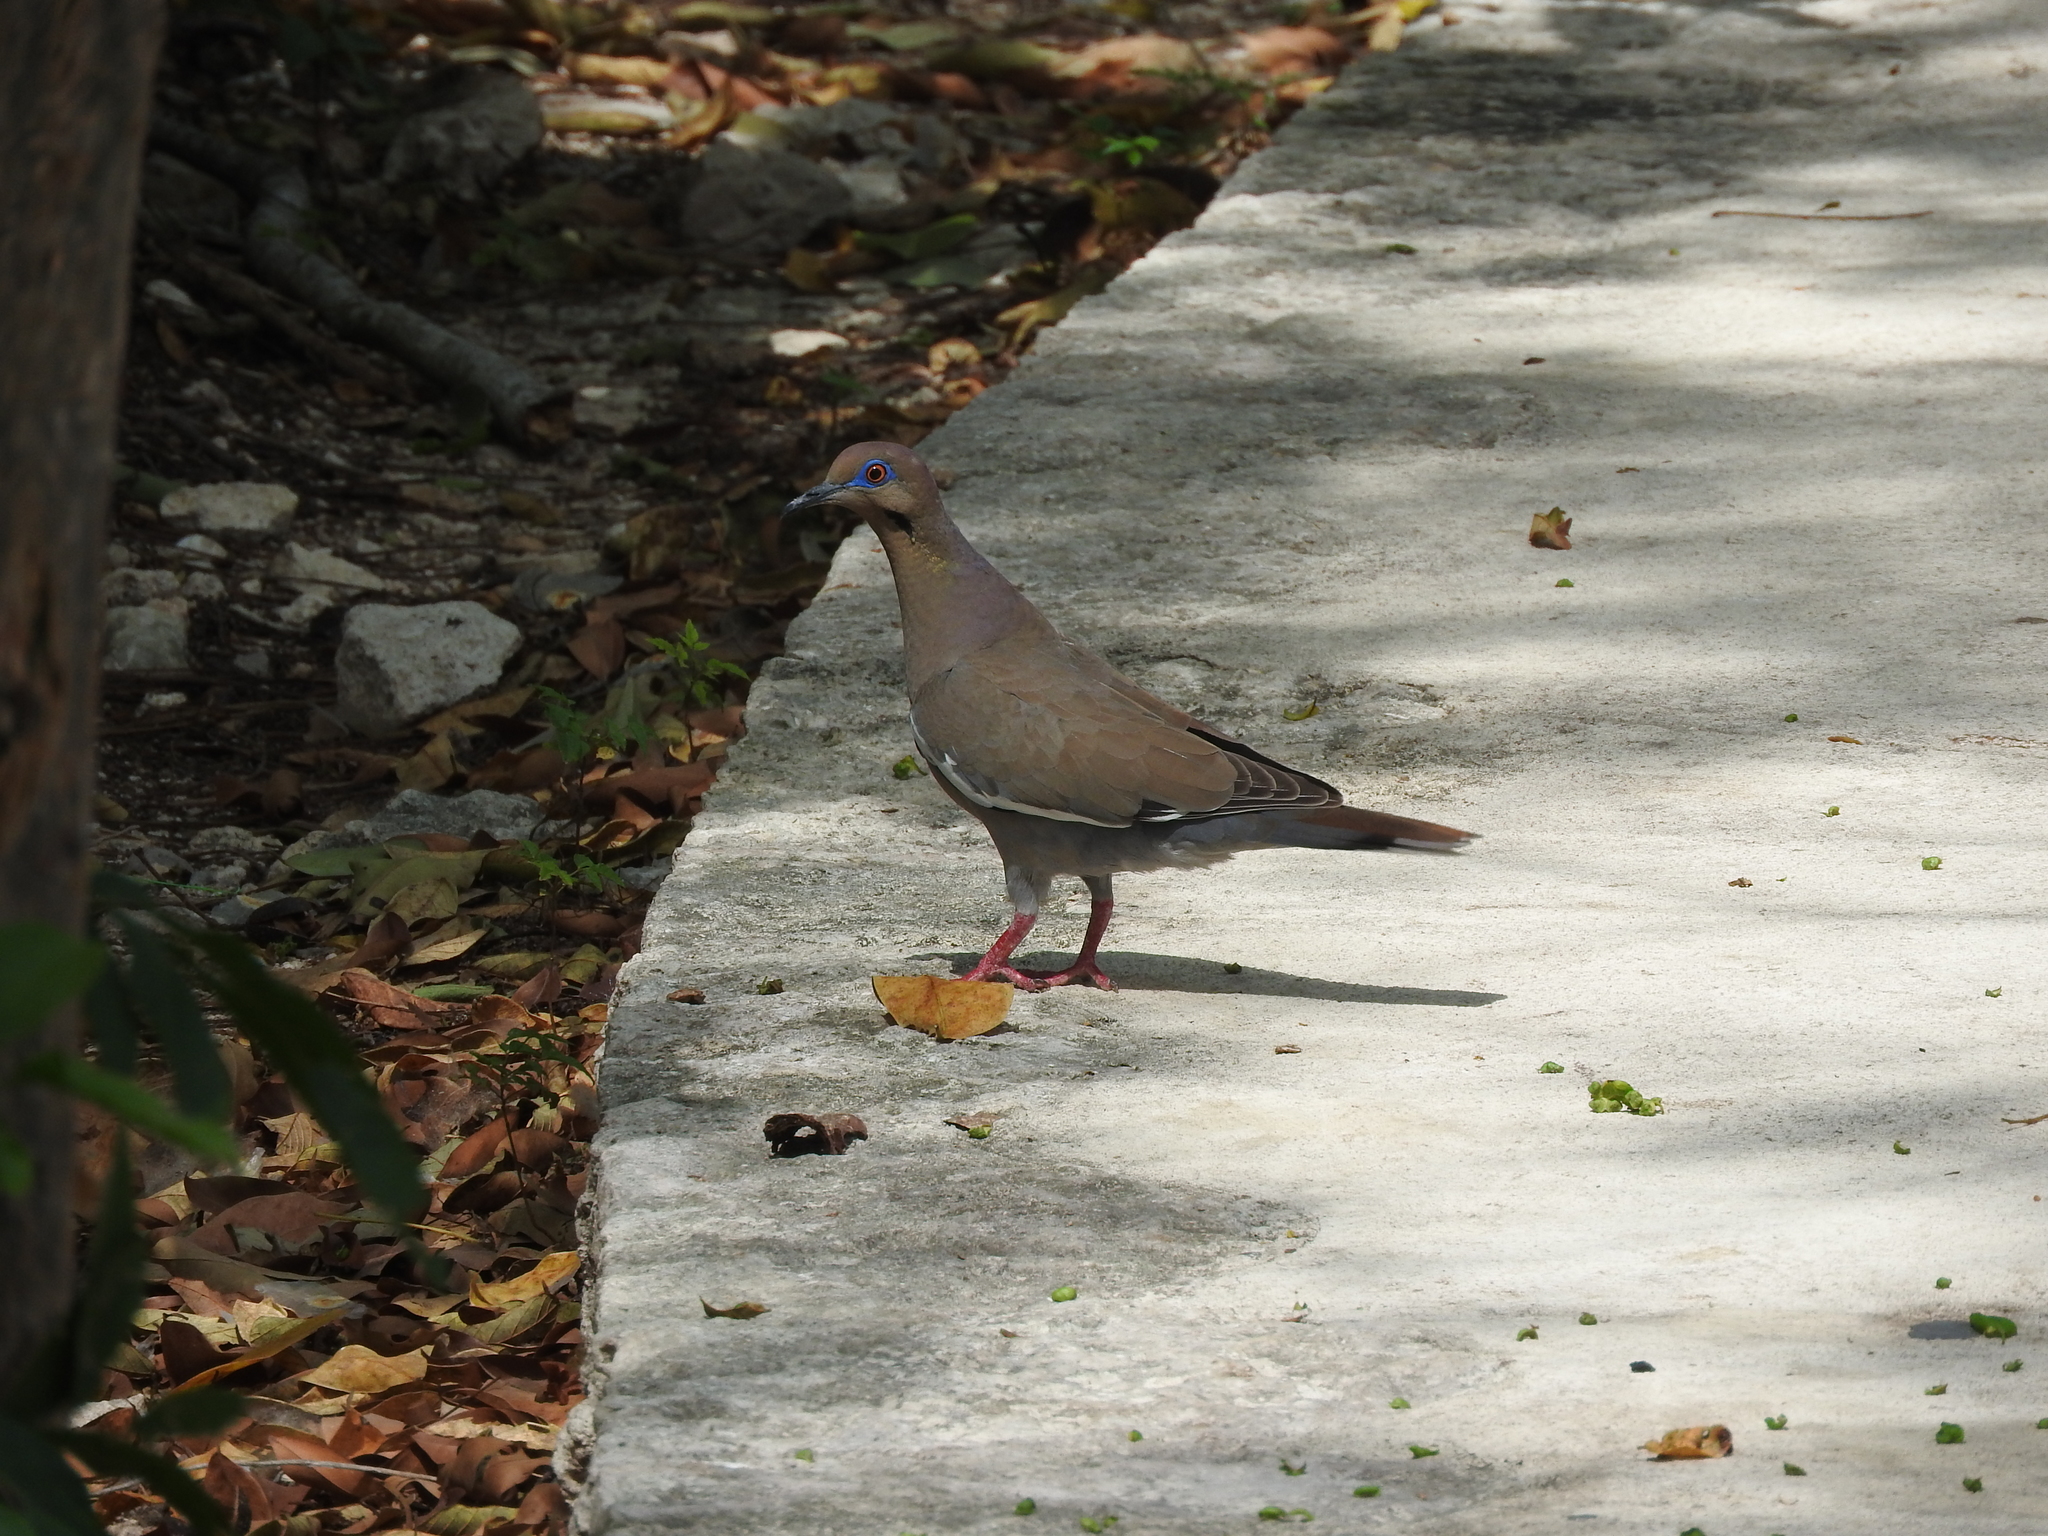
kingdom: Animalia
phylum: Chordata
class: Aves
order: Columbiformes
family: Columbidae
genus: Zenaida
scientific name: Zenaida asiatica
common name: White-winged dove
